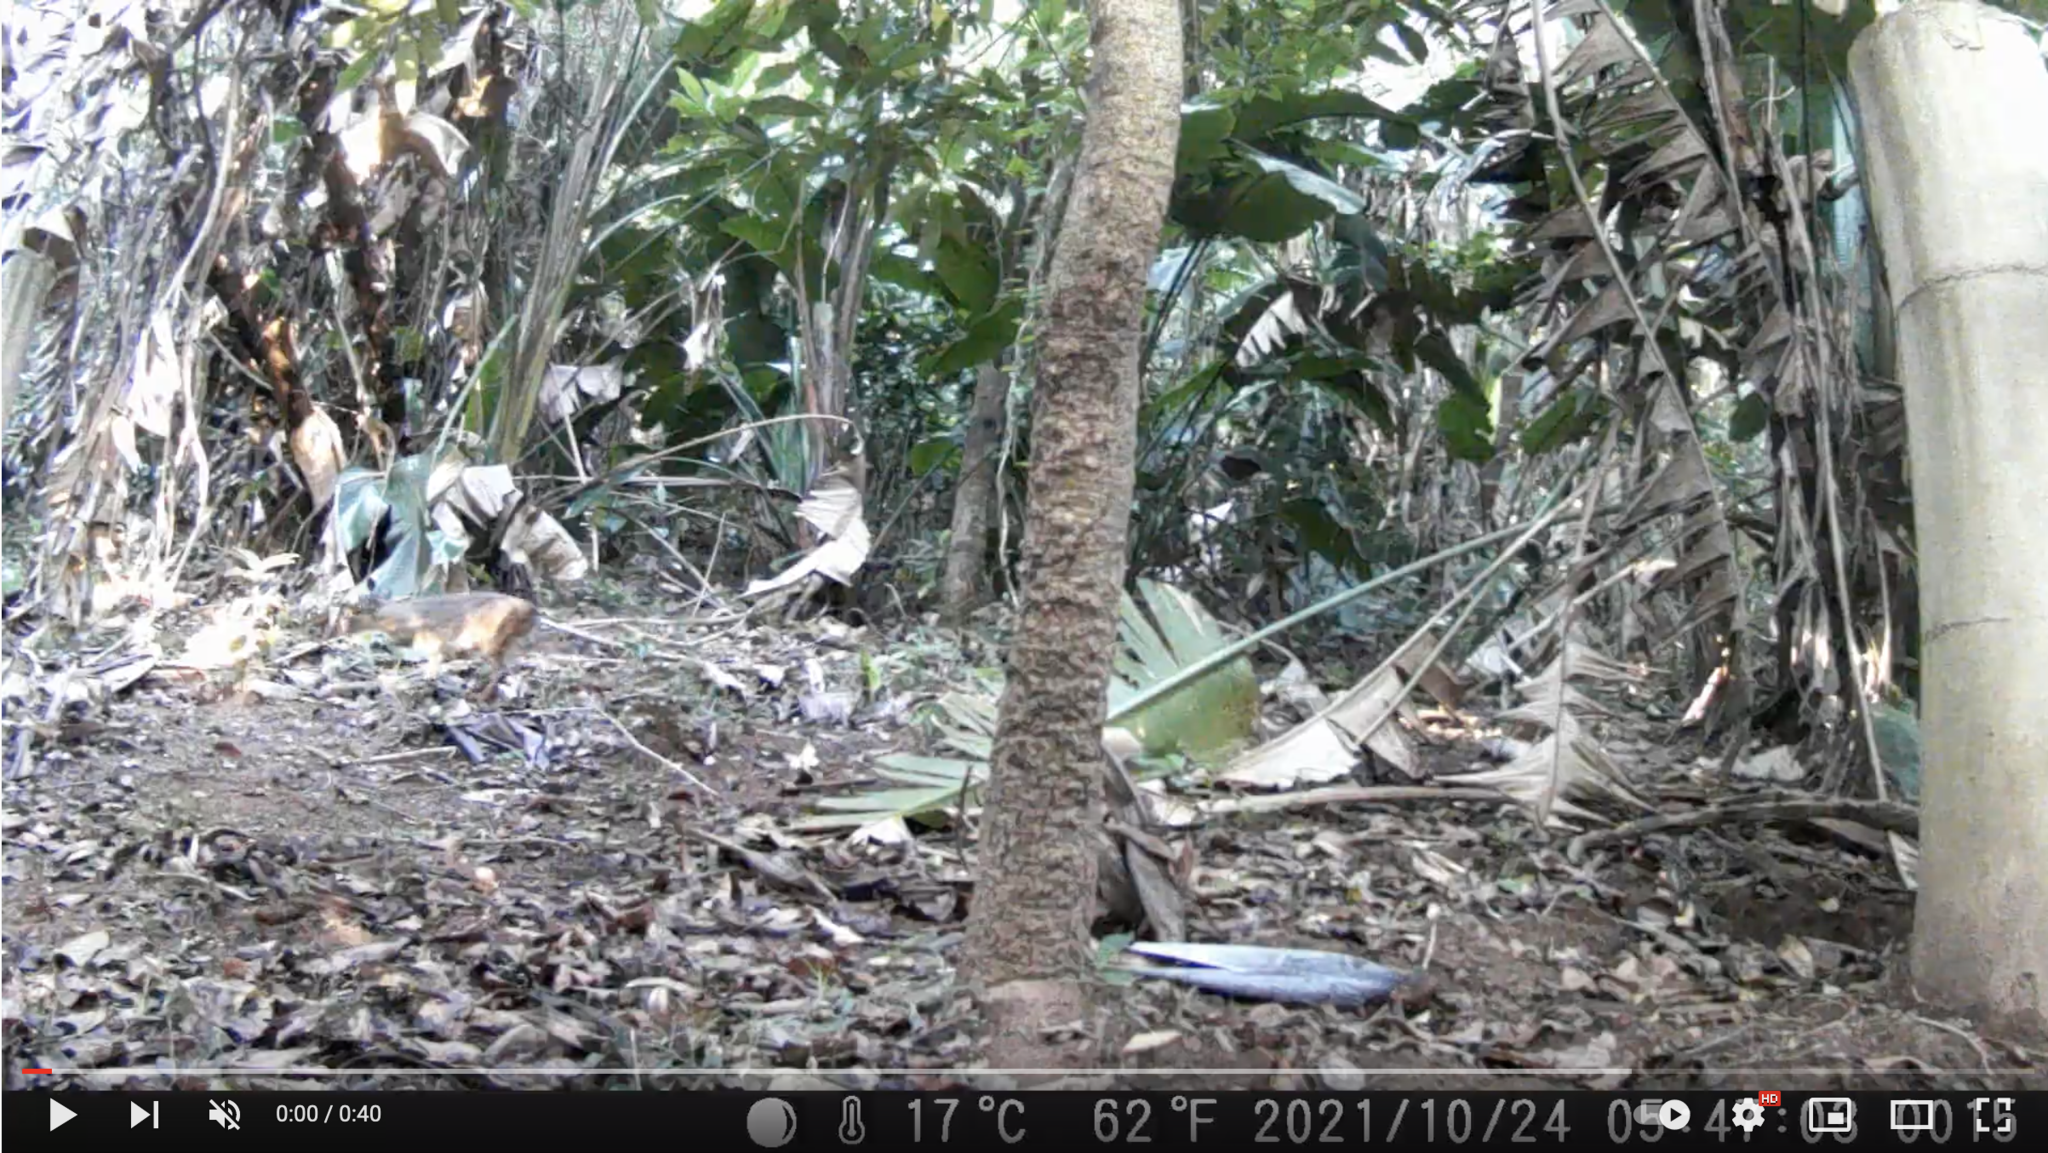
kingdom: Animalia
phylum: Chordata
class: Mammalia
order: Artiodactyla
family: Bovidae
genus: Philantomba
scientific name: Philantomba monticola
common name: Blue duiker
